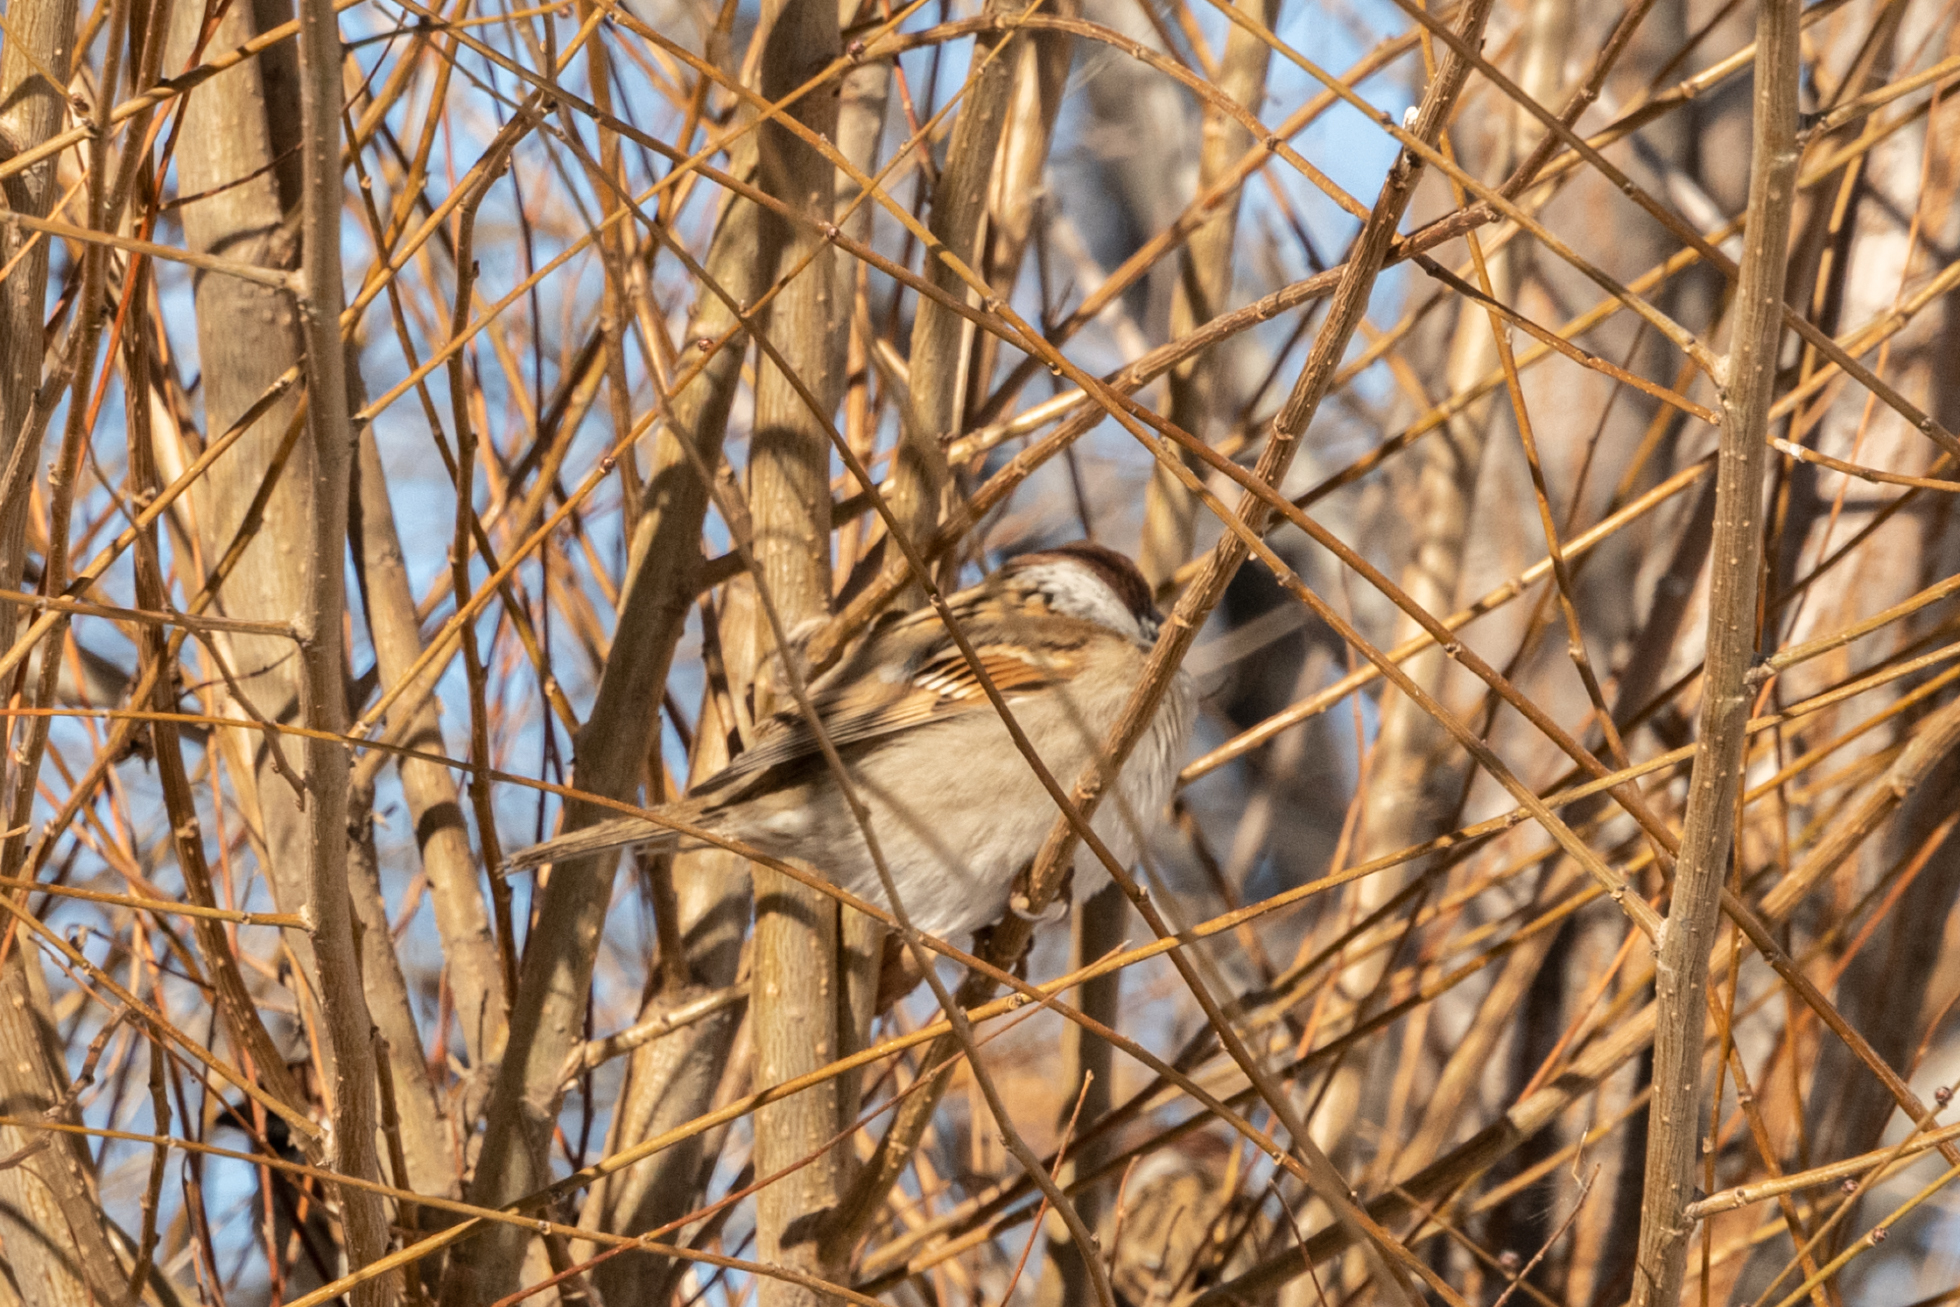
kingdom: Animalia
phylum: Chordata
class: Aves
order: Passeriformes
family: Passeridae
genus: Passer
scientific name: Passer montanus
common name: Eurasian tree sparrow
